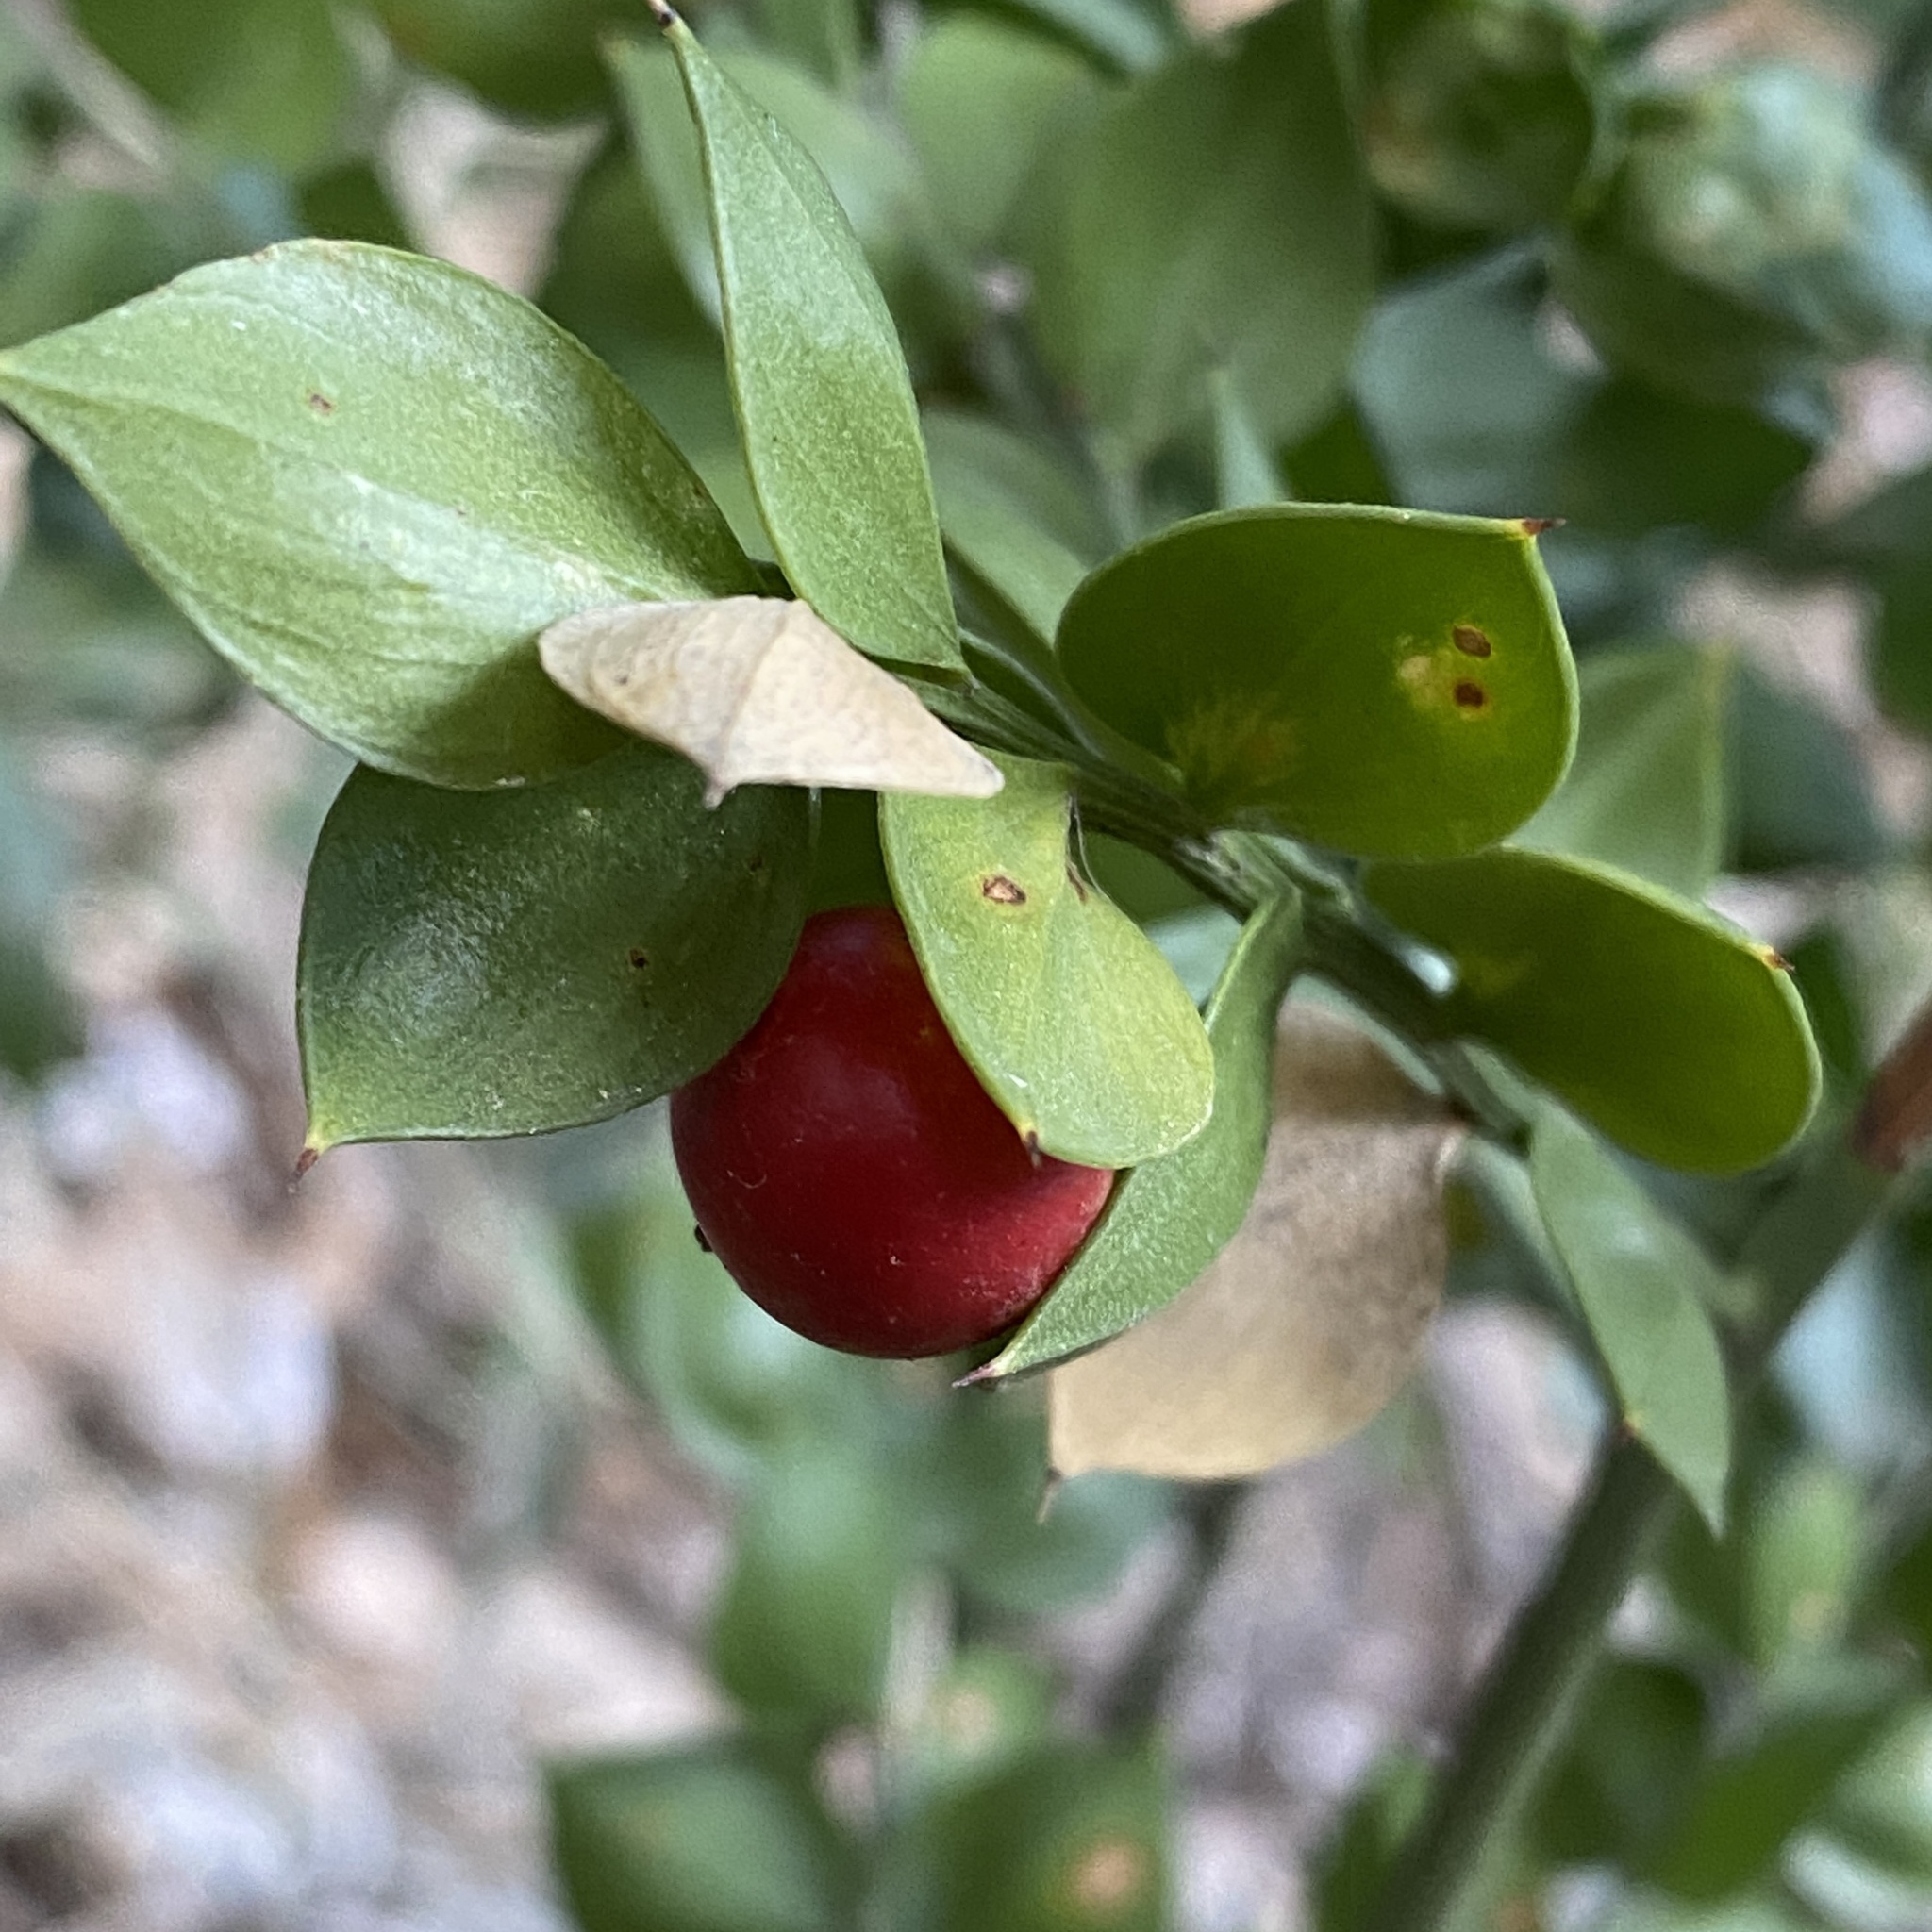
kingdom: Plantae
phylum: Tracheophyta
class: Liliopsida
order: Asparagales
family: Asparagaceae
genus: Ruscus
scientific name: Ruscus aculeatus
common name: Butcher's-broom
